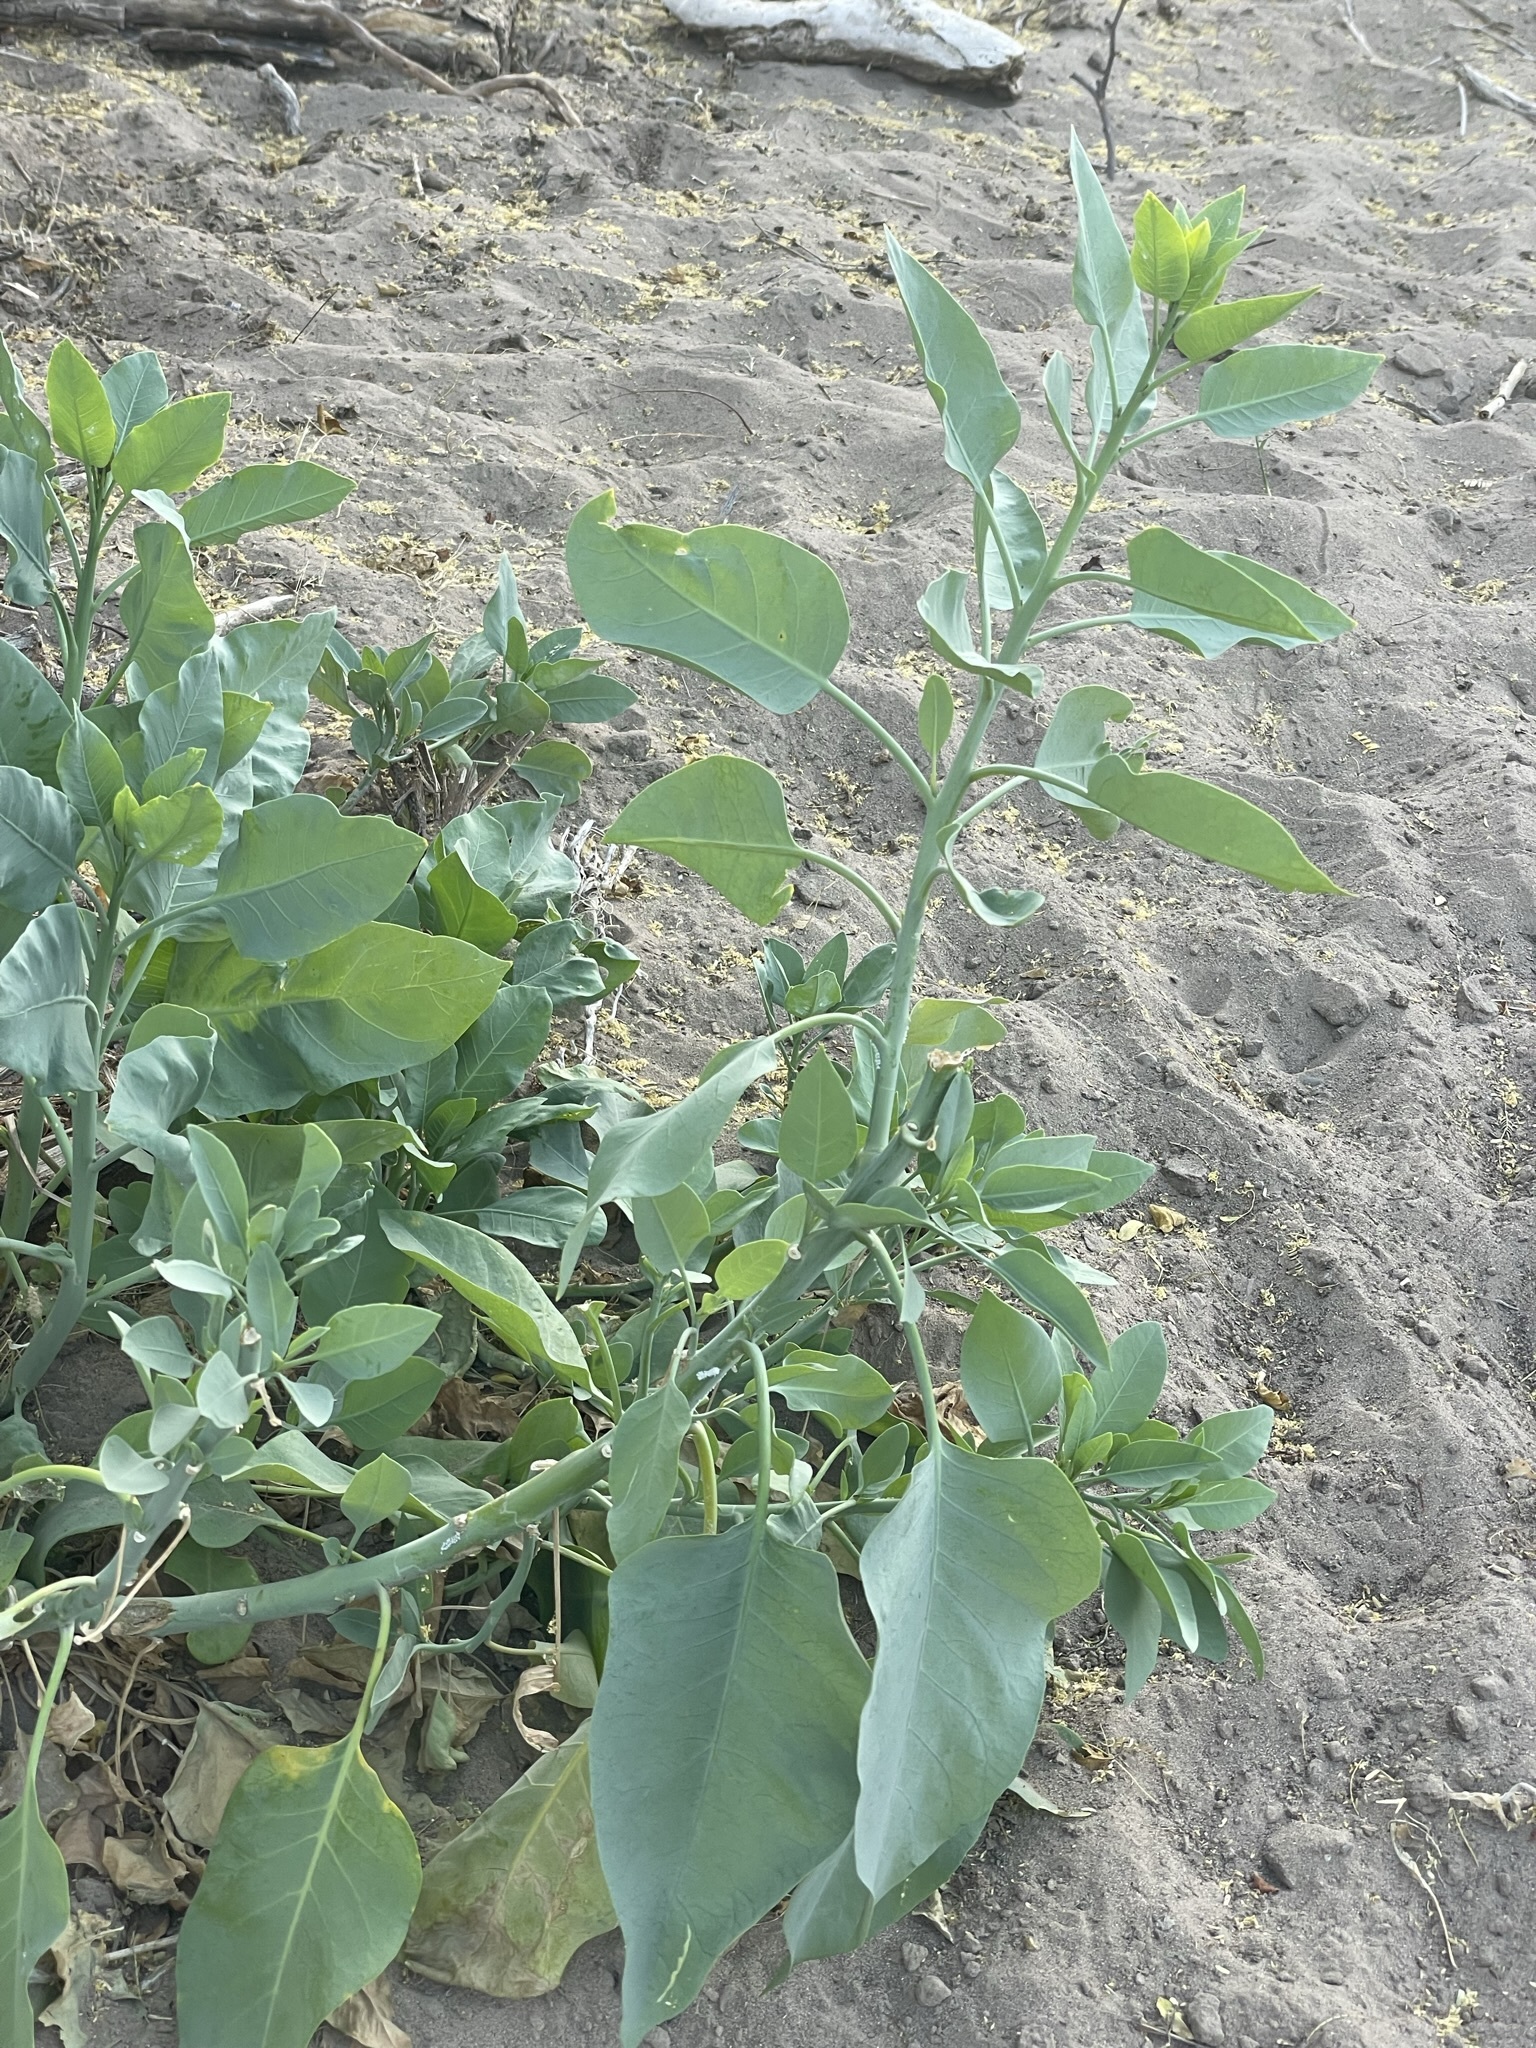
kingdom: Plantae
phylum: Tracheophyta
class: Magnoliopsida
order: Solanales
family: Solanaceae
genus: Nicotiana
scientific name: Nicotiana glauca
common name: Tree tobacco
